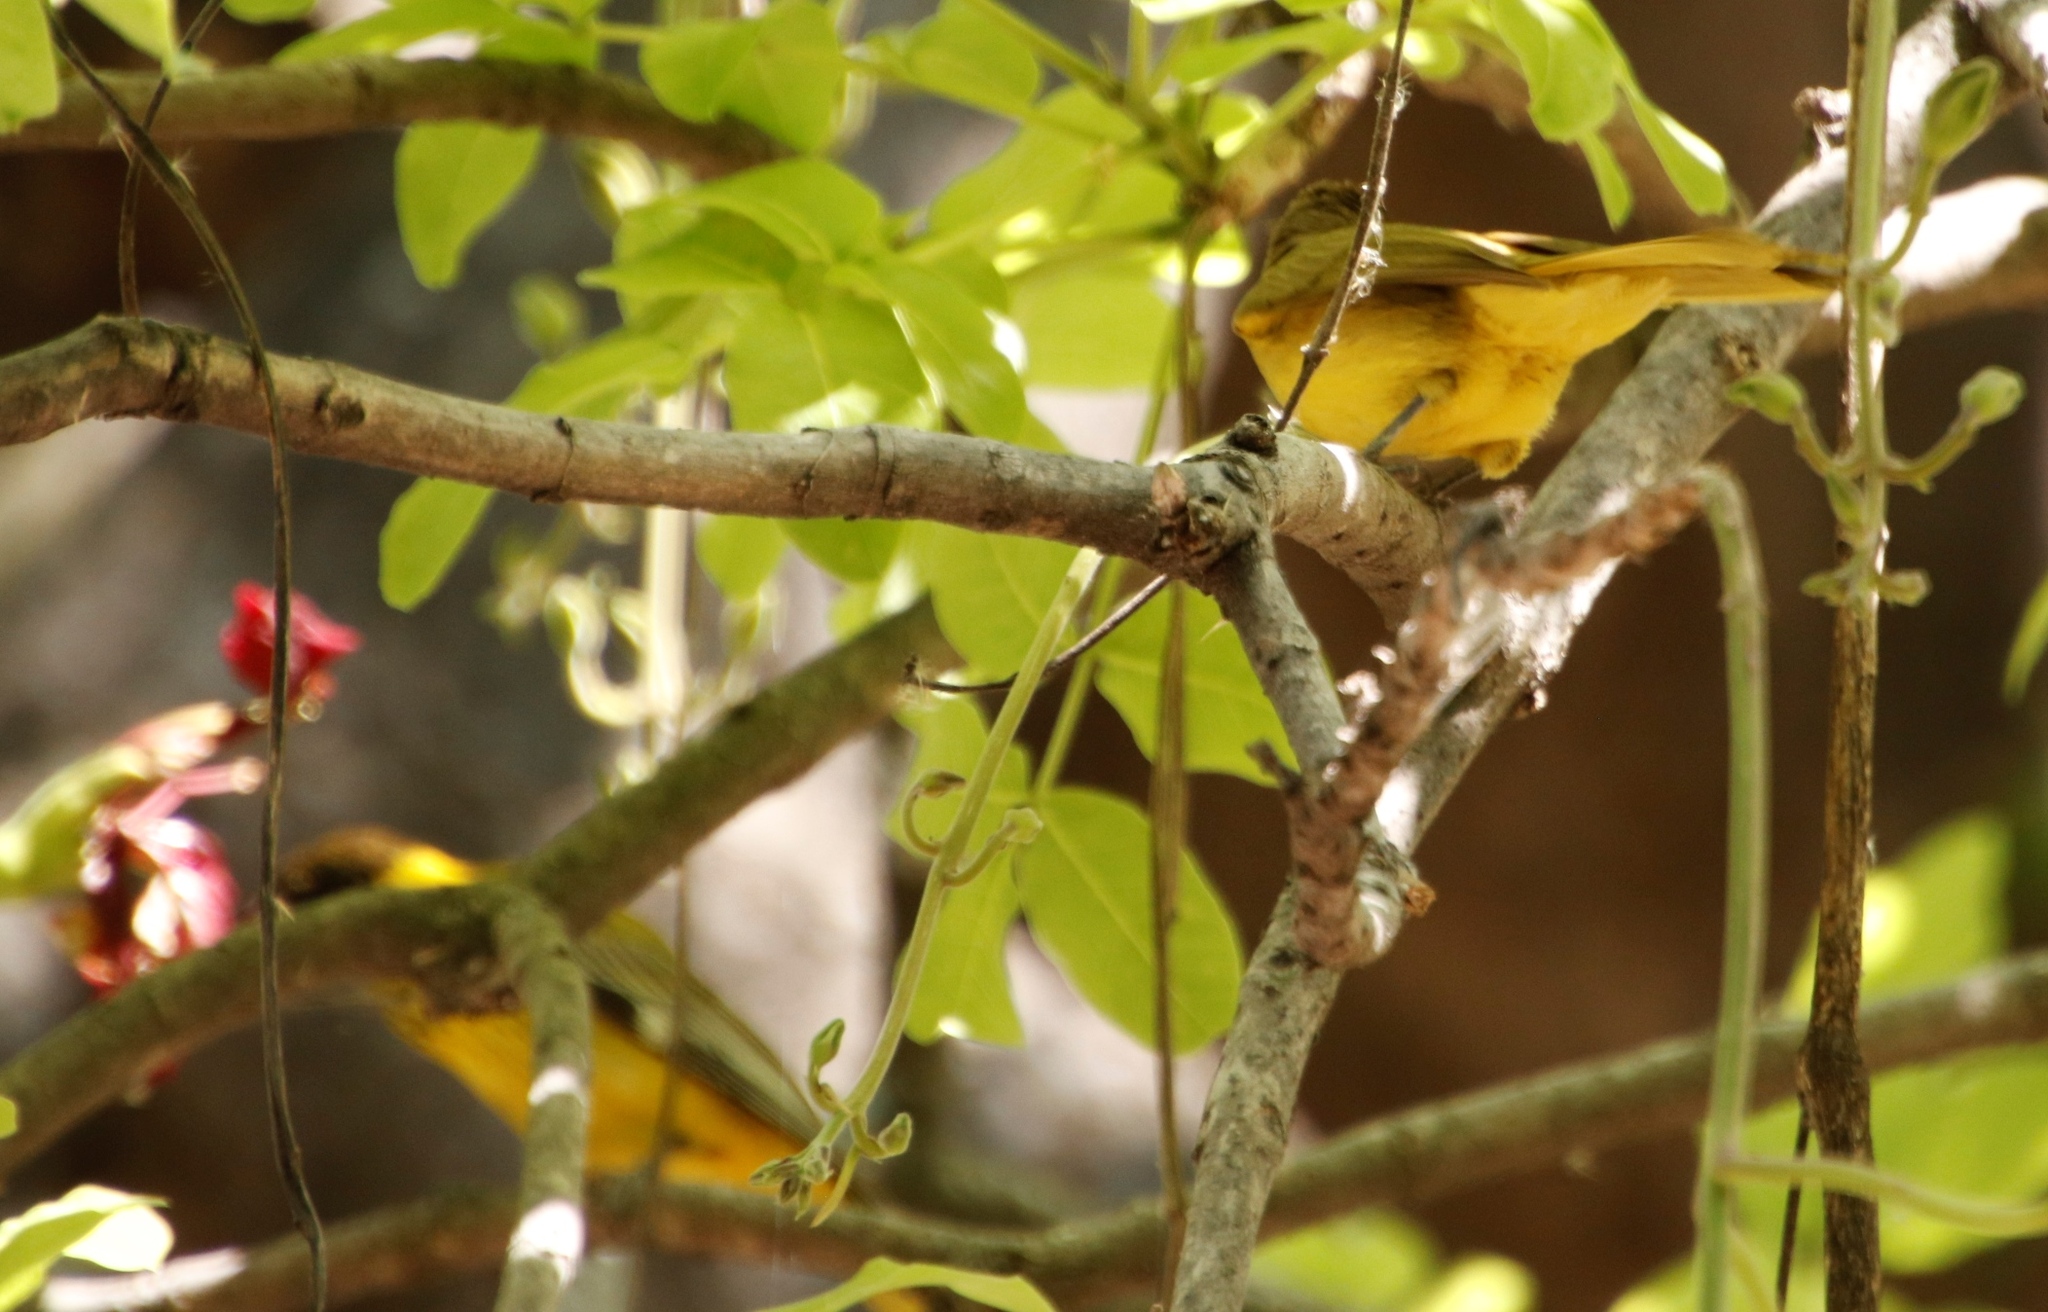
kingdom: Animalia
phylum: Chordata
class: Aves
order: Passeriformes
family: Oriolidae
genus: Oriolus
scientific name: Oriolus larvatus
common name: Black-headed oriole
